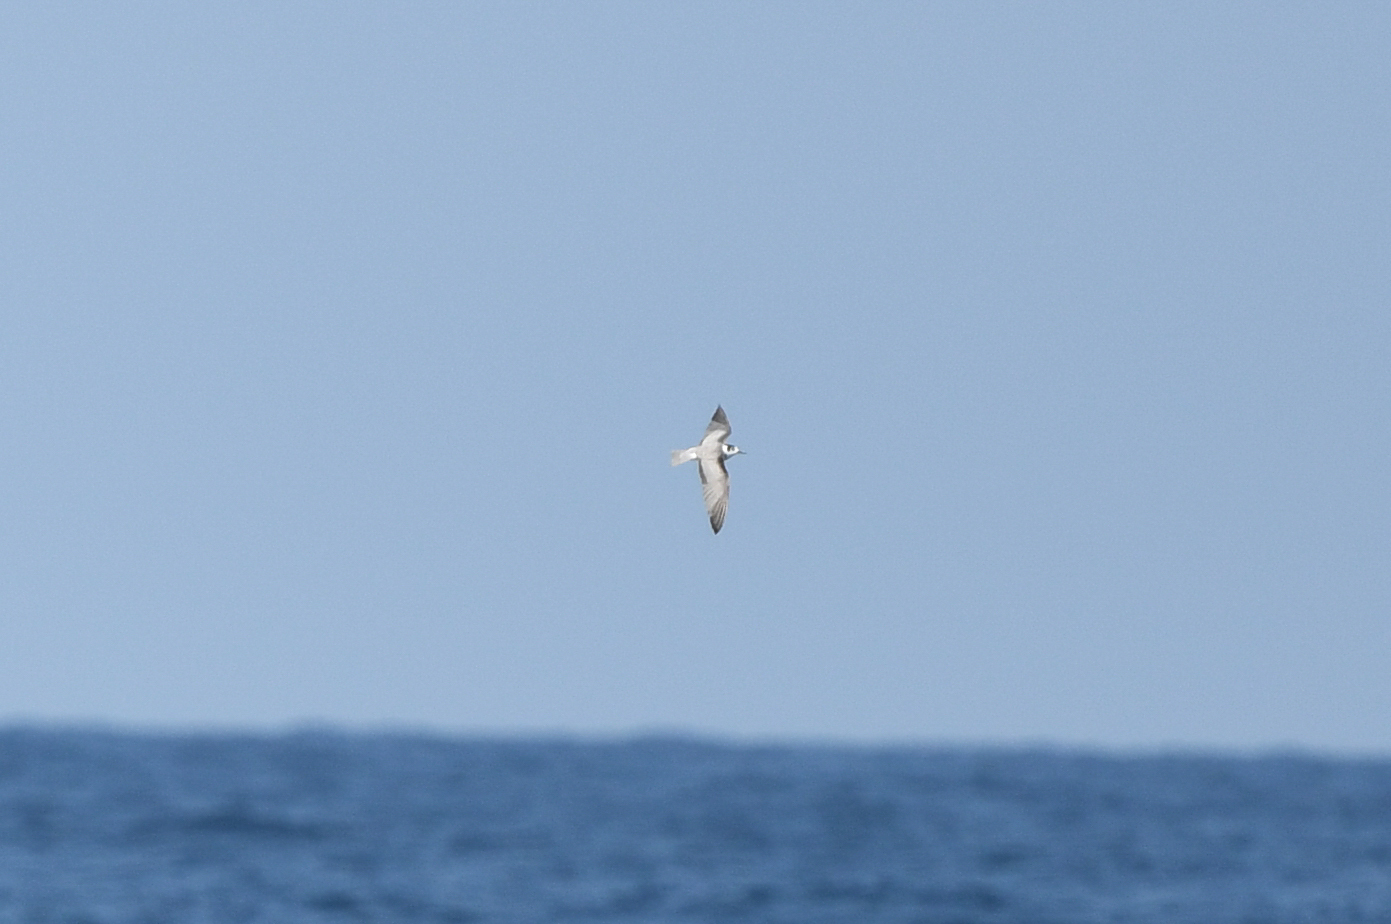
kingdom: Animalia
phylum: Chordata
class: Aves
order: Charadriiformes
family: Laridae
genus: Chlidonias
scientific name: Chlidonias niger
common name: Black tern
